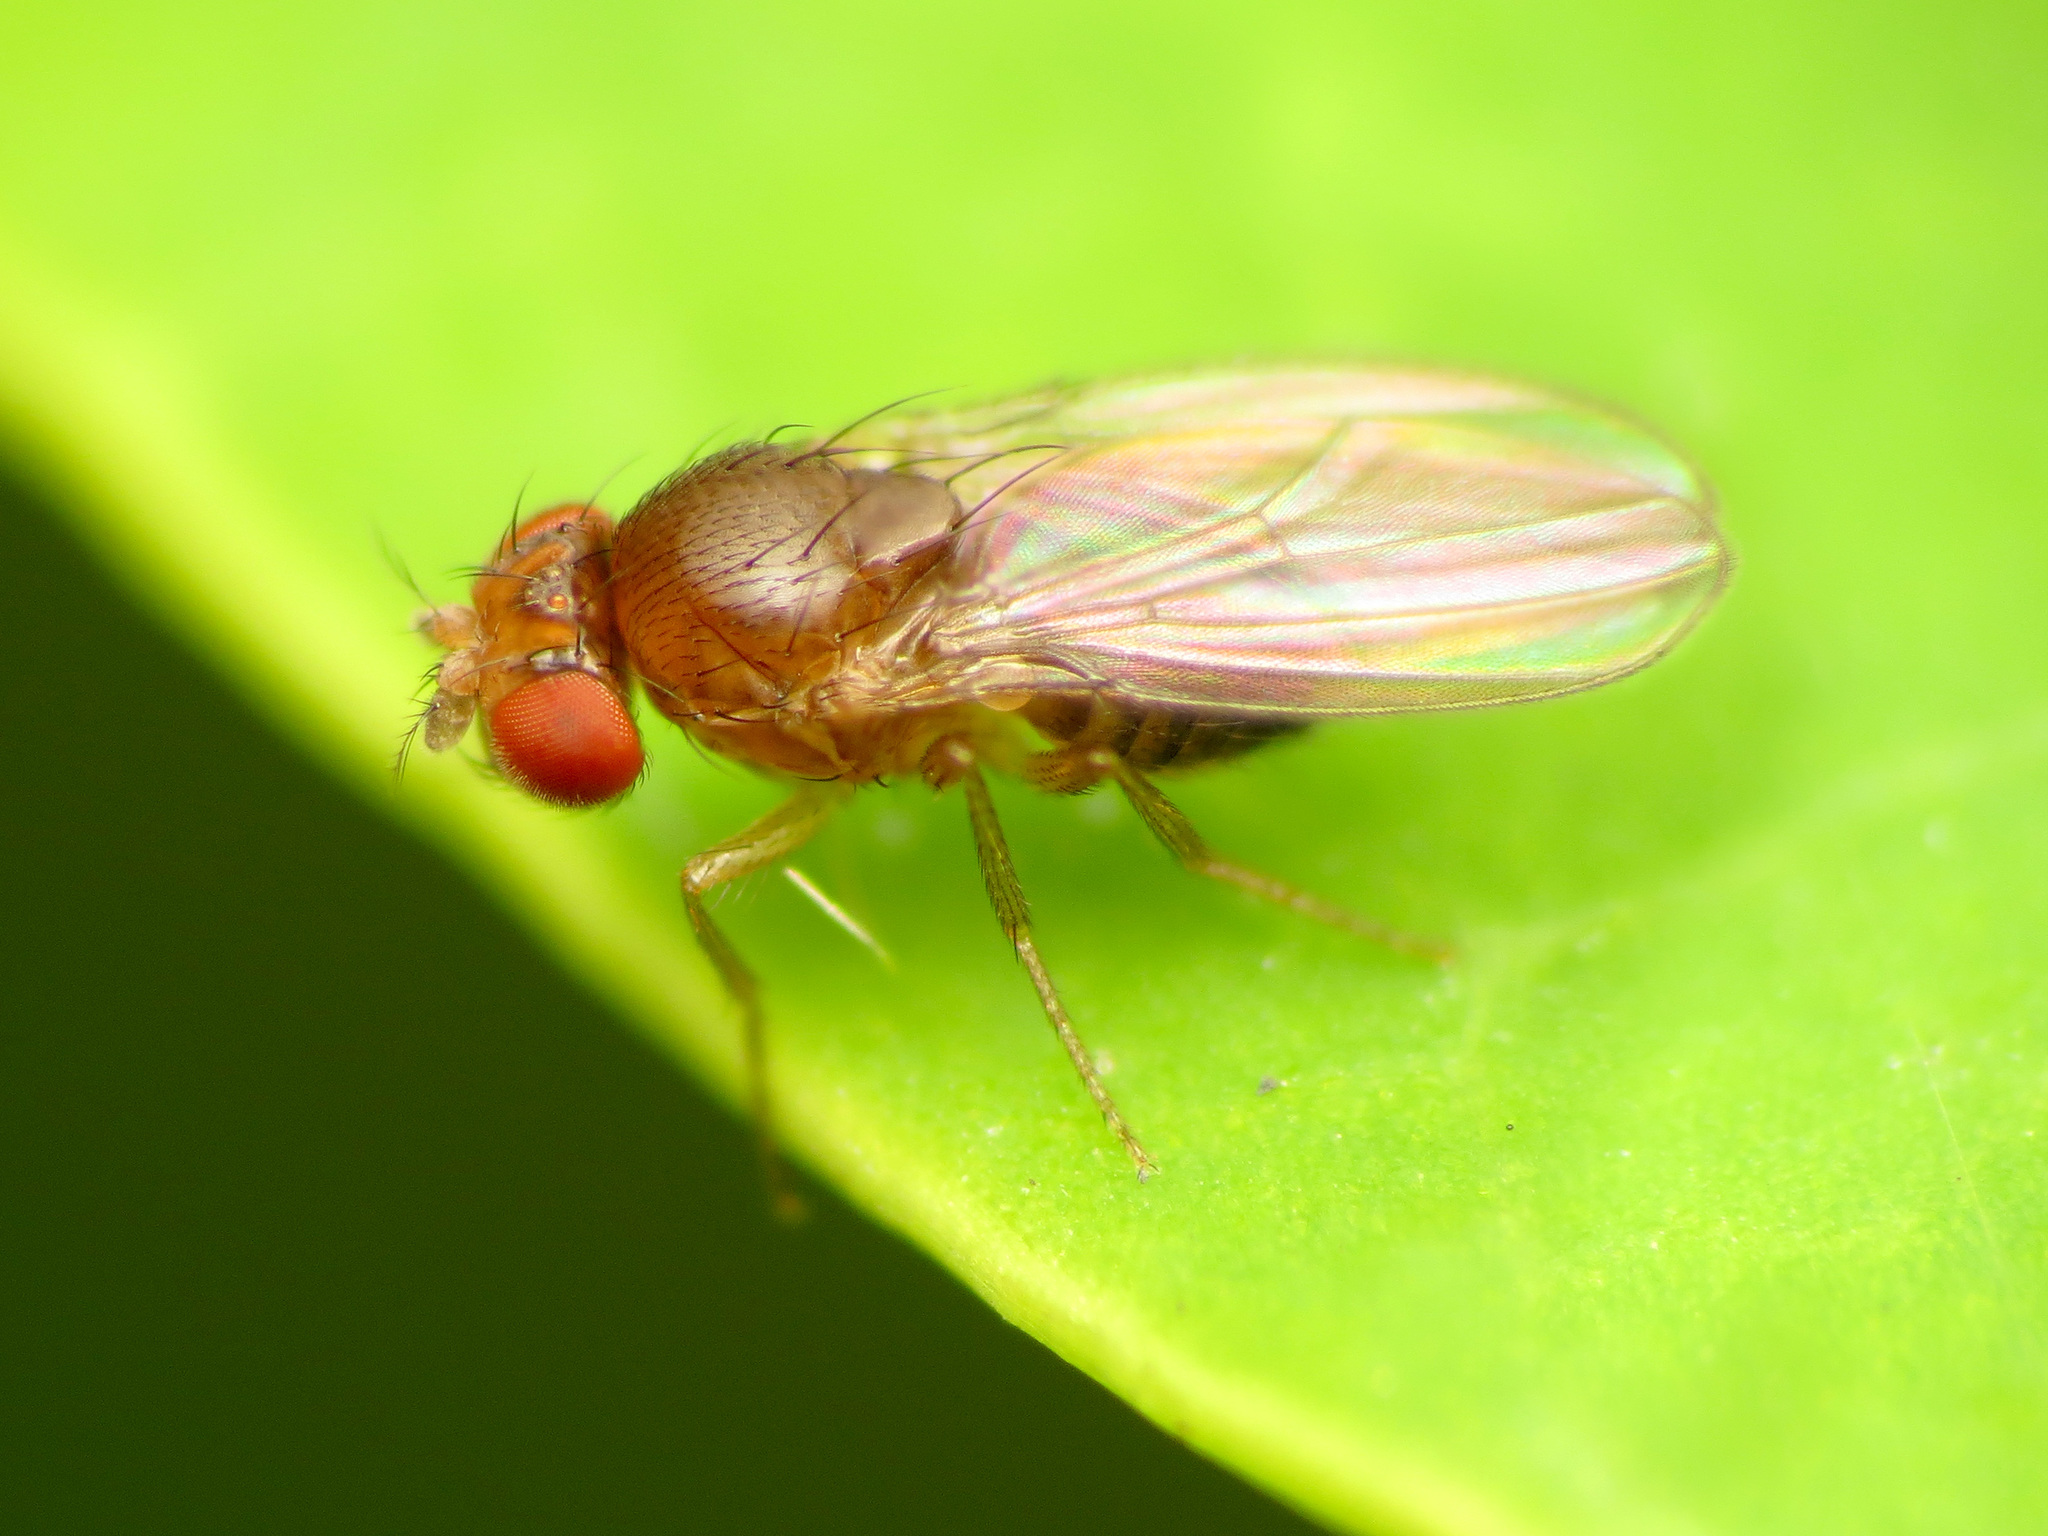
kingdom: Animalia
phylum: Arthropoda
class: Insecta
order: Diptera
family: Drosophilidae
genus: Drosophila
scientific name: Drosophila
